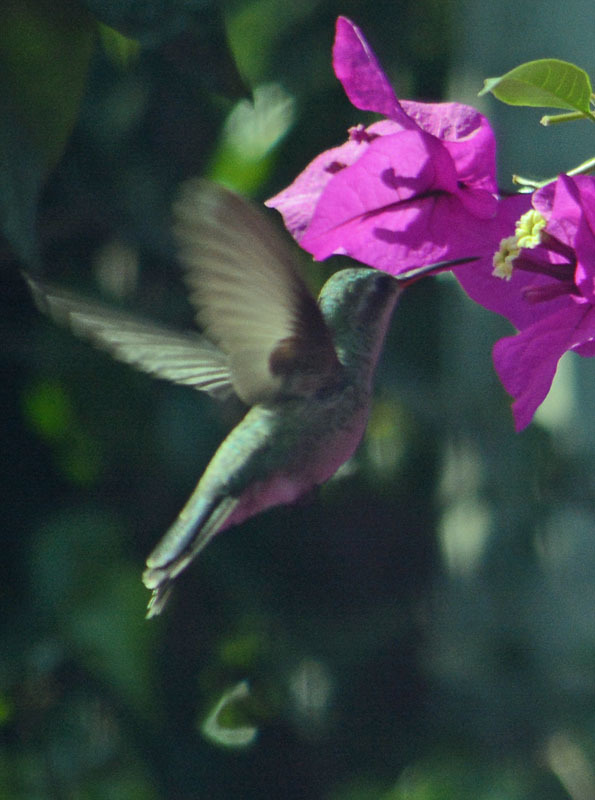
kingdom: Animalia
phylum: Chordata
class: Aves
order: Apodiformes
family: Trochilidae
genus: Cynanthus
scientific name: Cynanthus latirostris
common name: Broad-billed hummingbird
